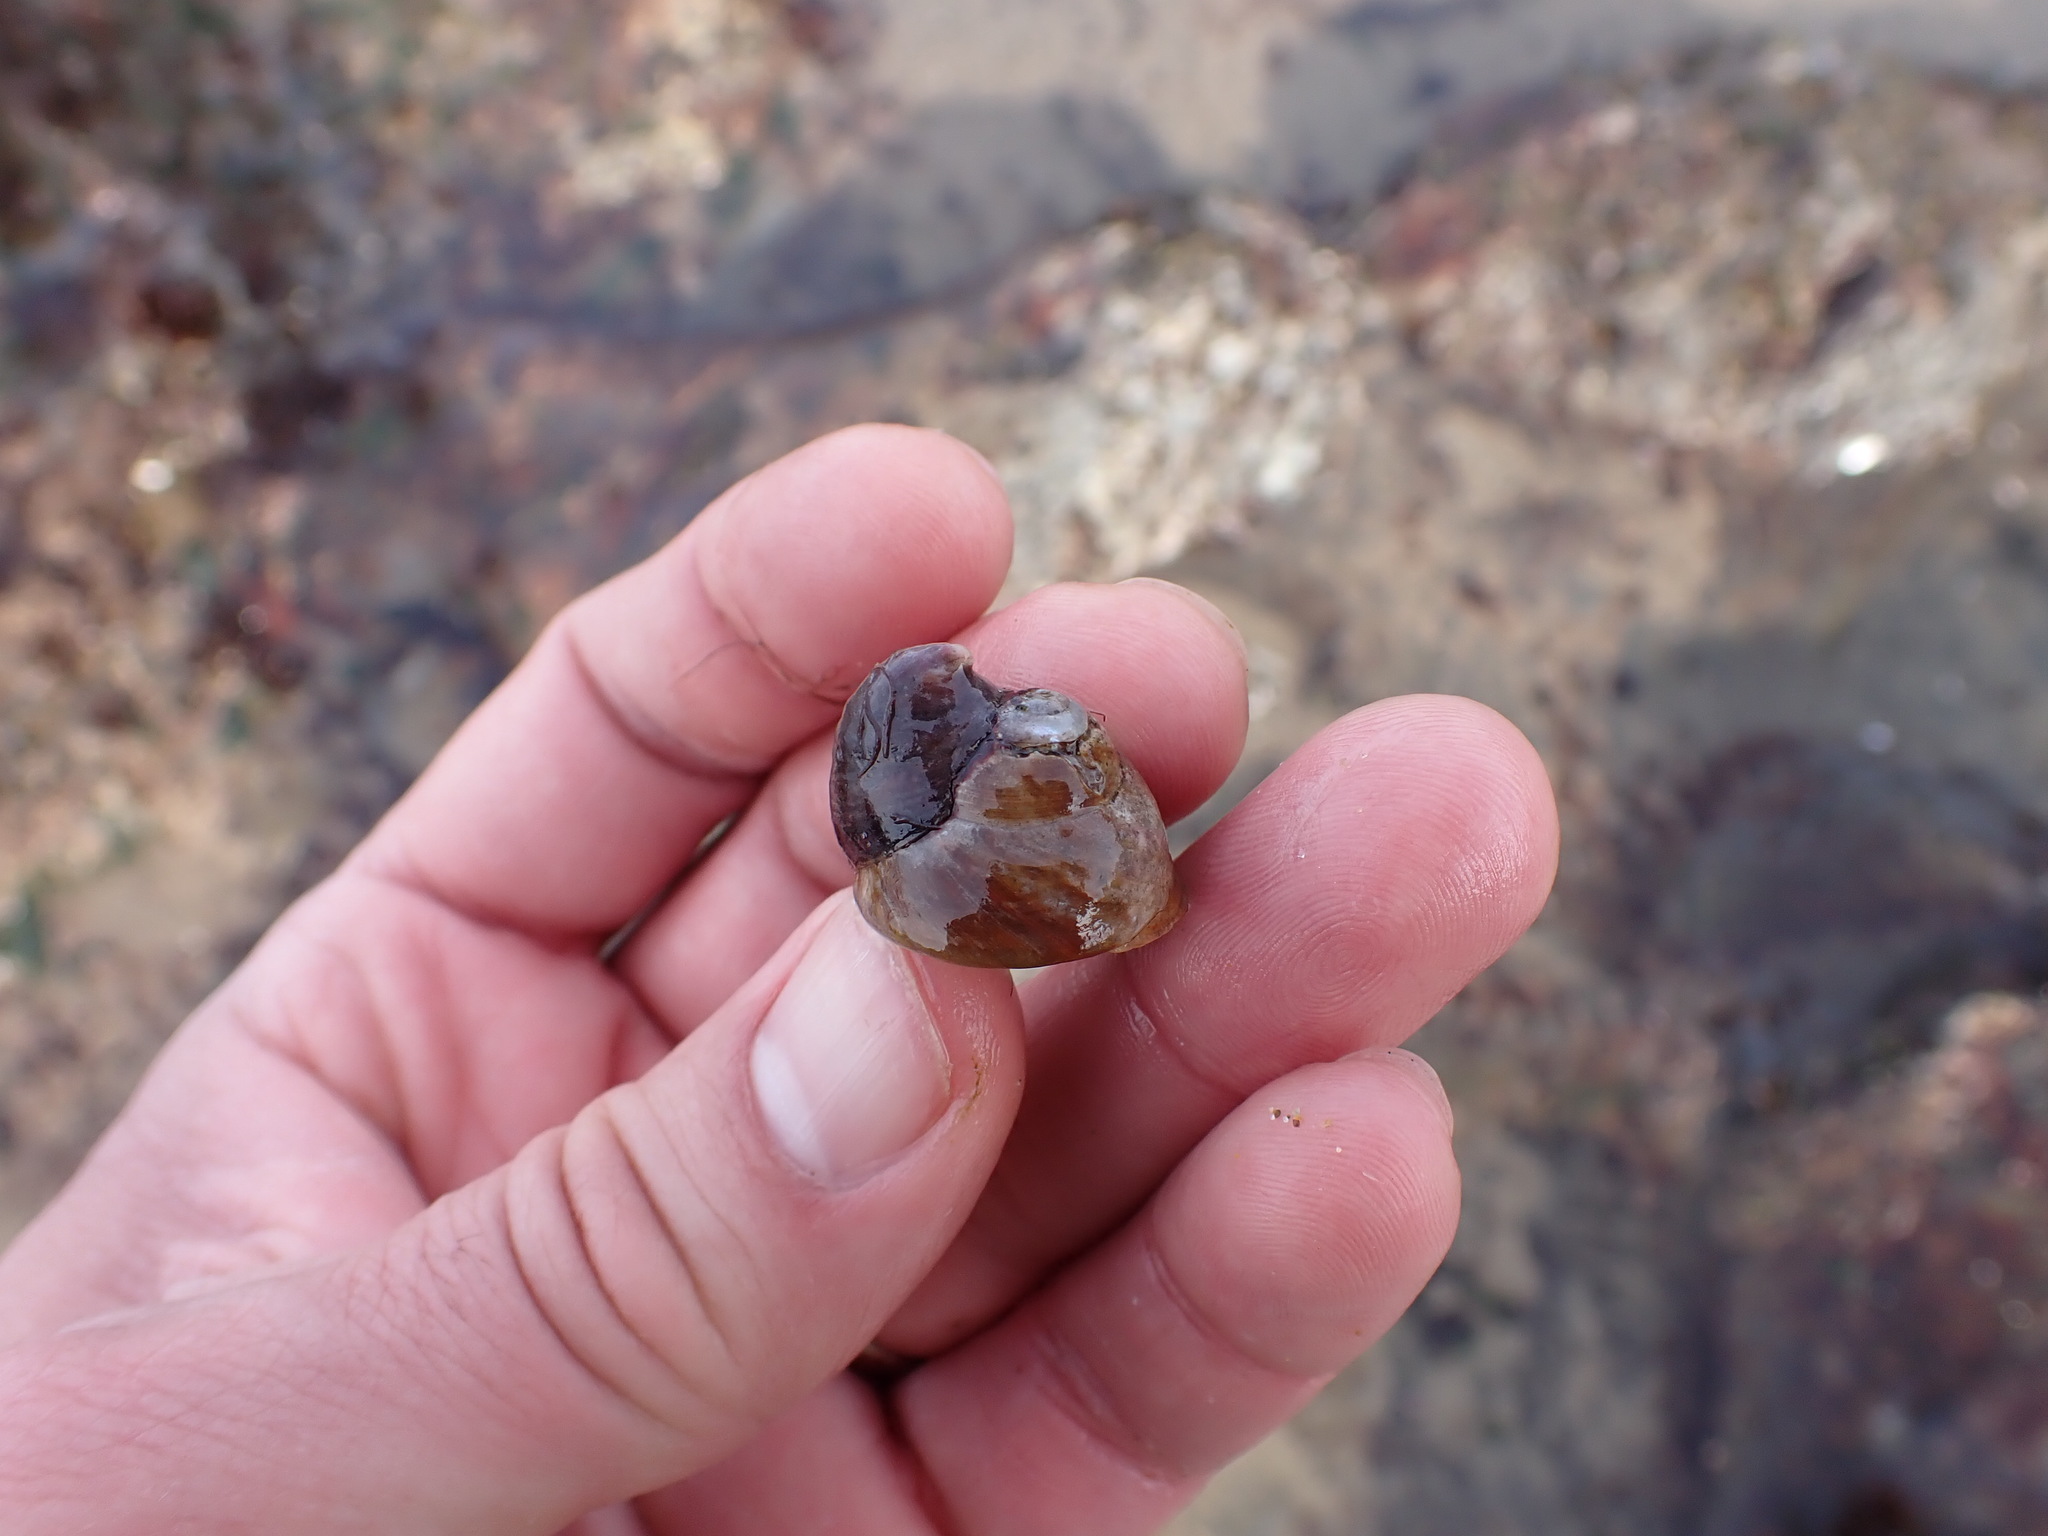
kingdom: Animalia
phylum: Mollusca
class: Gastropoda
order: Littorinimorpha
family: Calyptraeidae
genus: Crepidula
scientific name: Crepidula adunca
